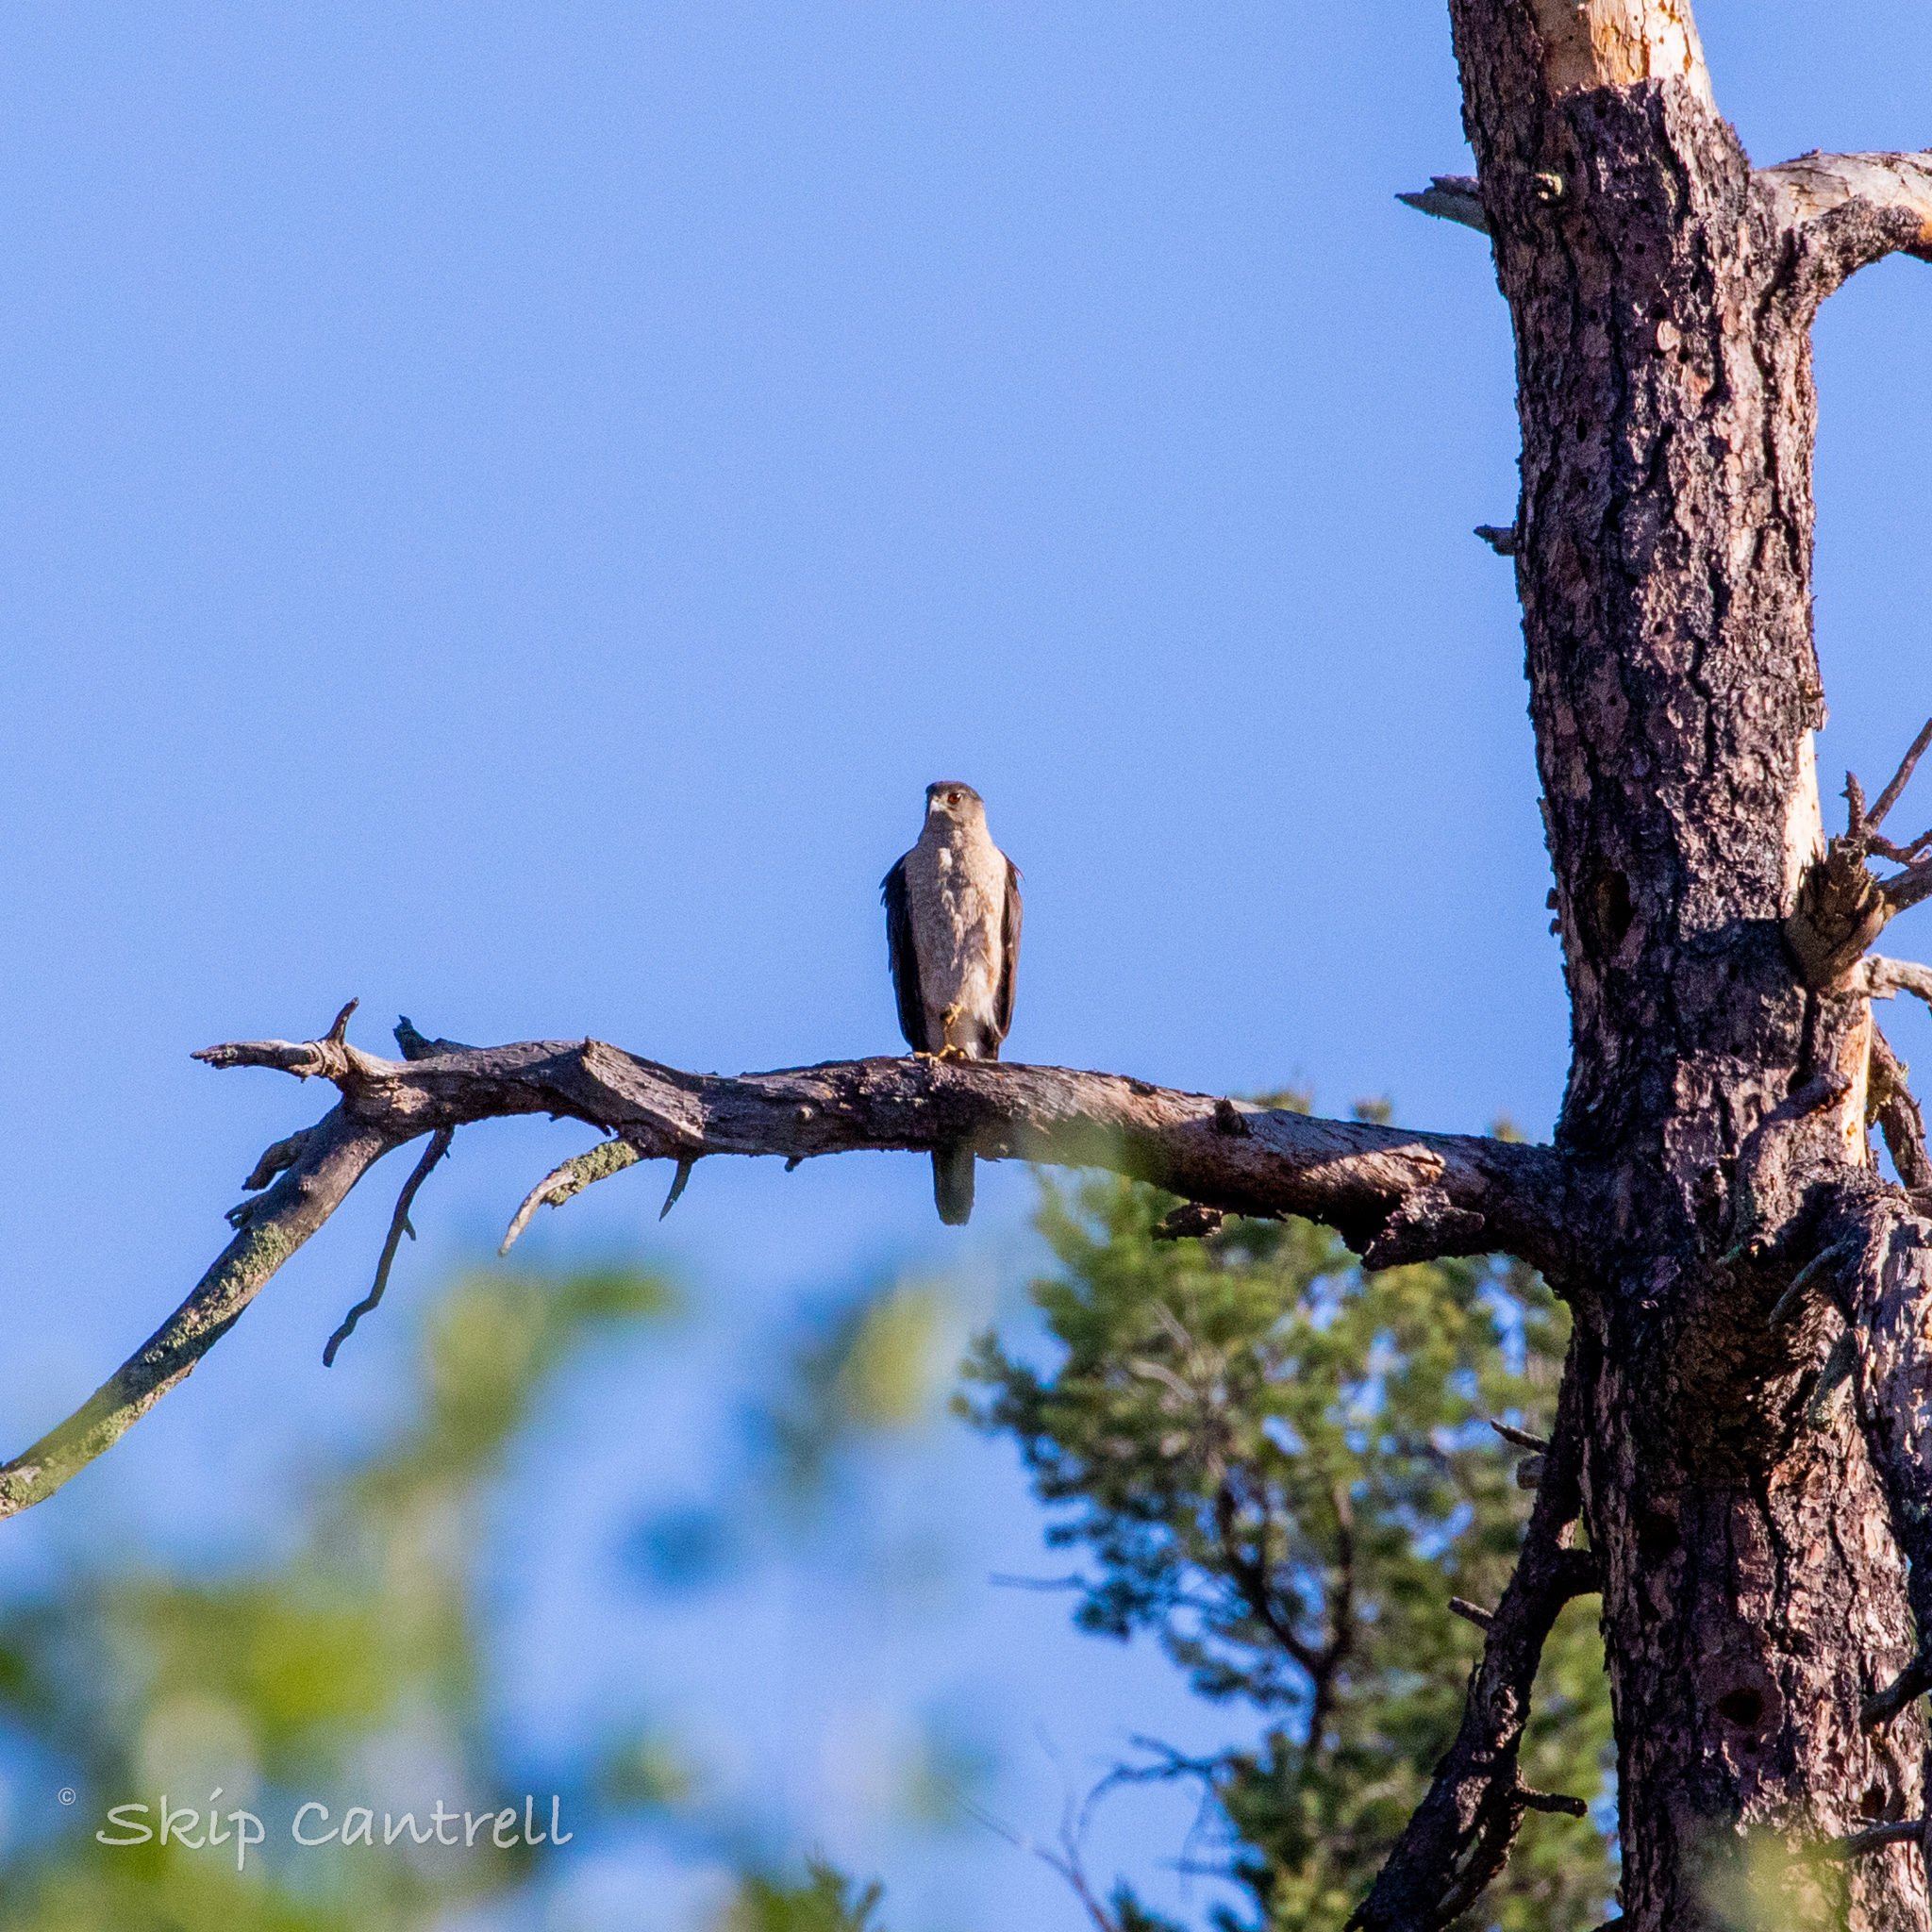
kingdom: Animalia
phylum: Chordata
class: Aves
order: Accipitriformes
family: Accipitridae
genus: Accipiter
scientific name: Accipiter cooperii
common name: Cooper's hawk
